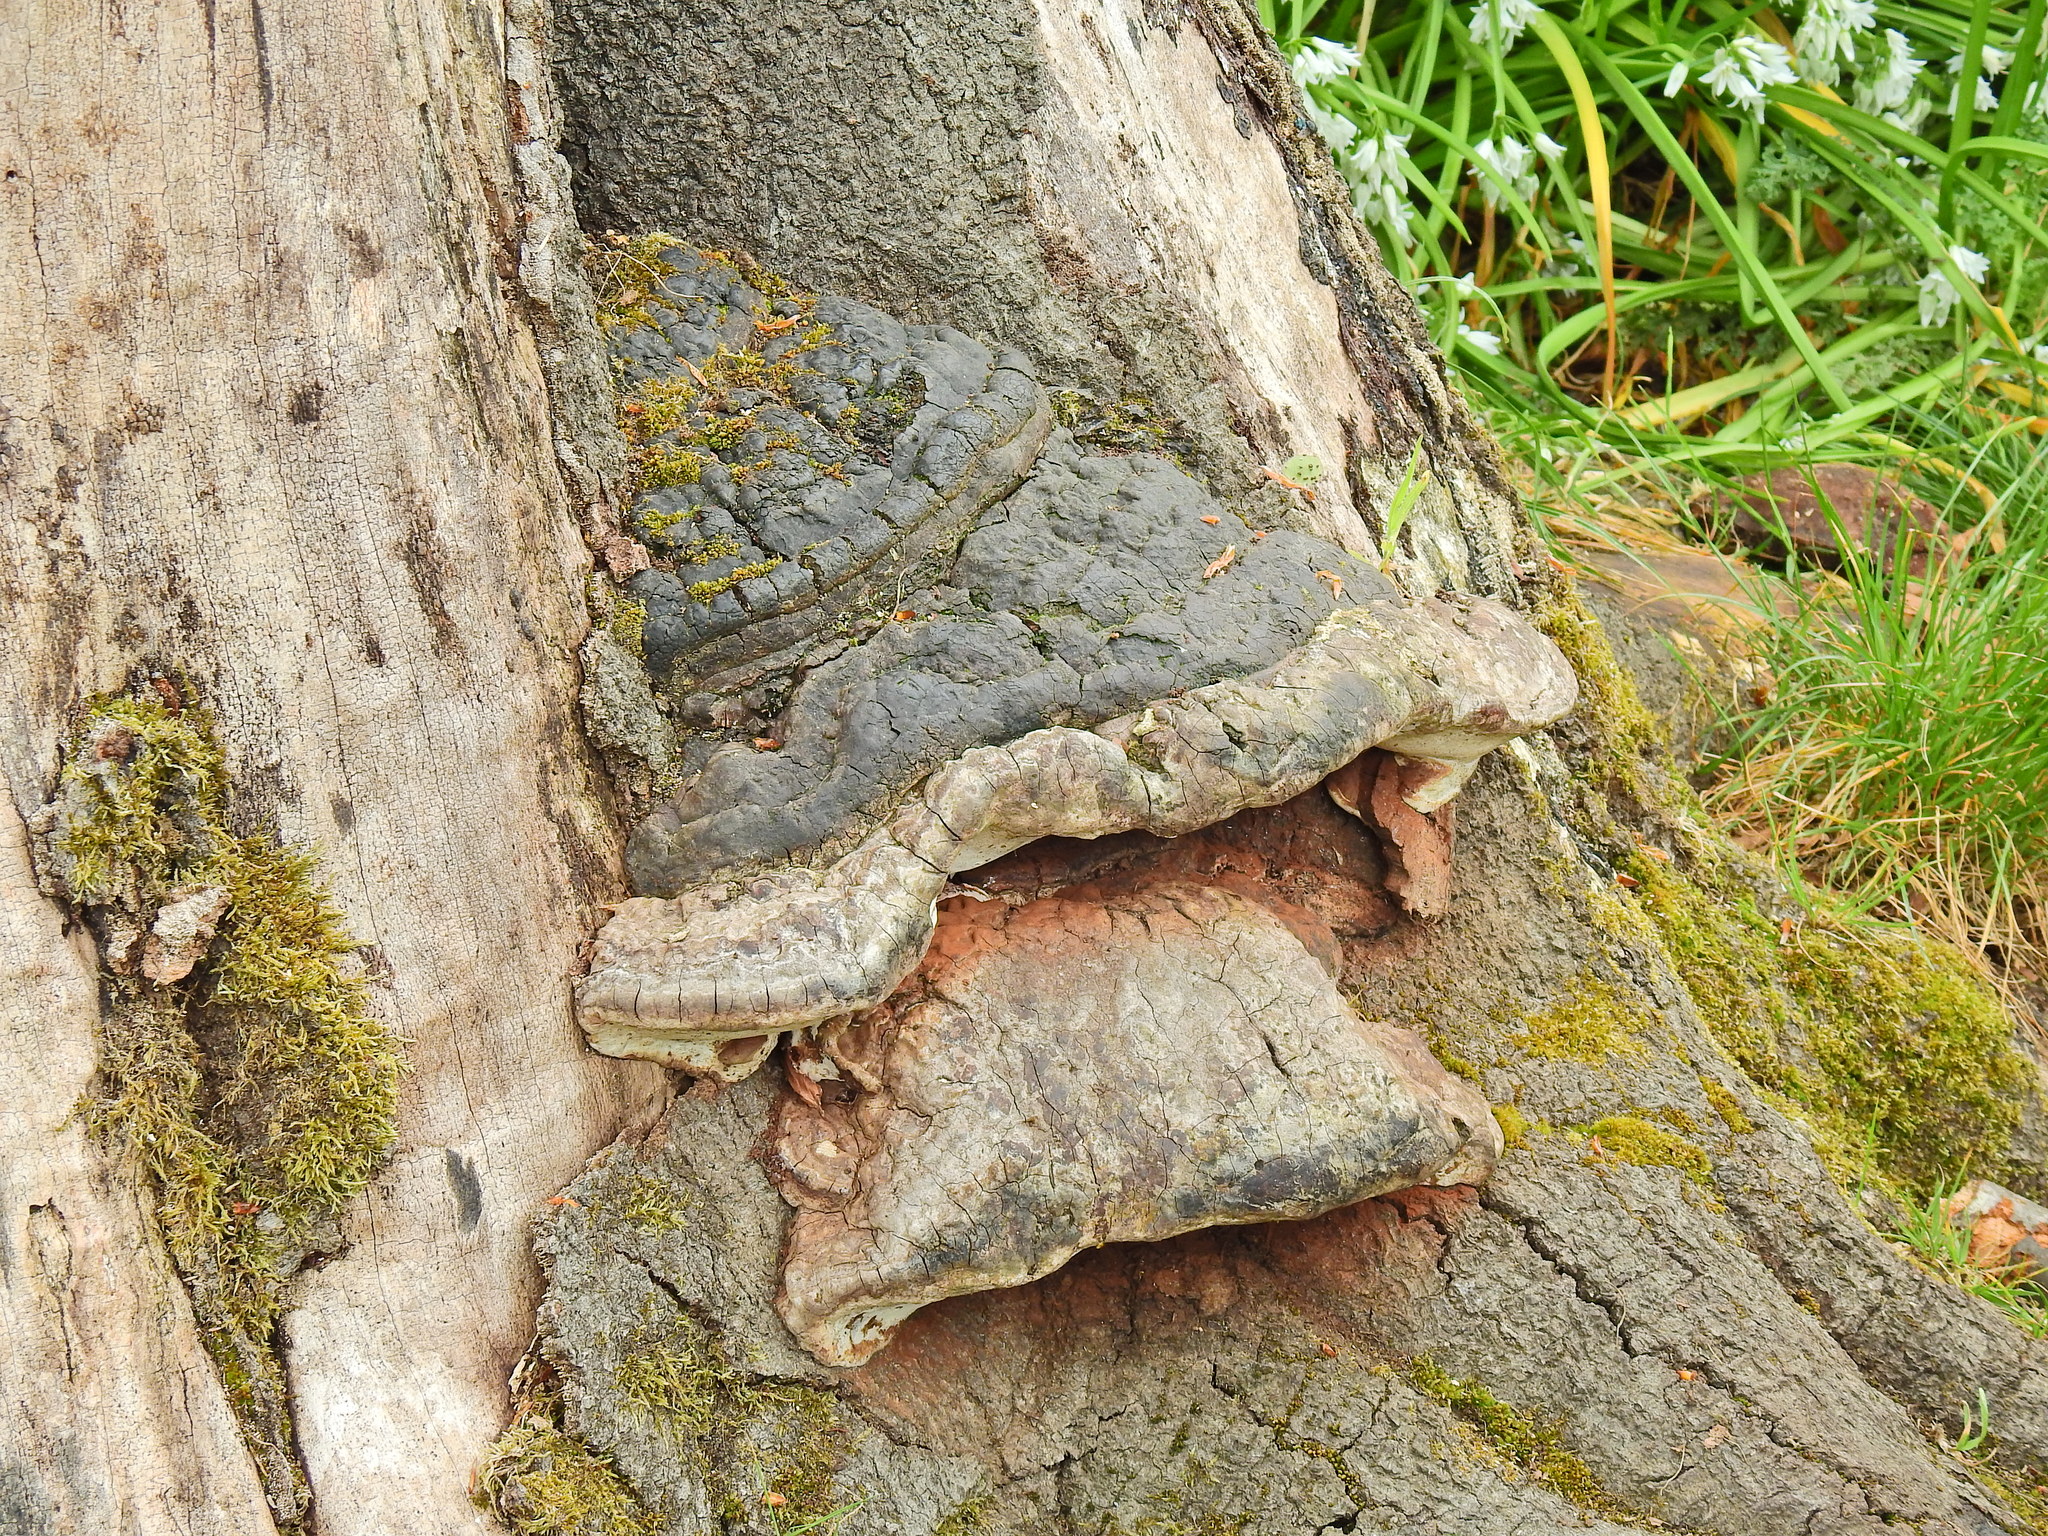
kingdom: Fungi
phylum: Basidiomycota
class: Agaricomycetes
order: Polyporales
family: Polyporaceae
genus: Ganoderma
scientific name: Ganoderma applanatum
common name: Artist's bracket
